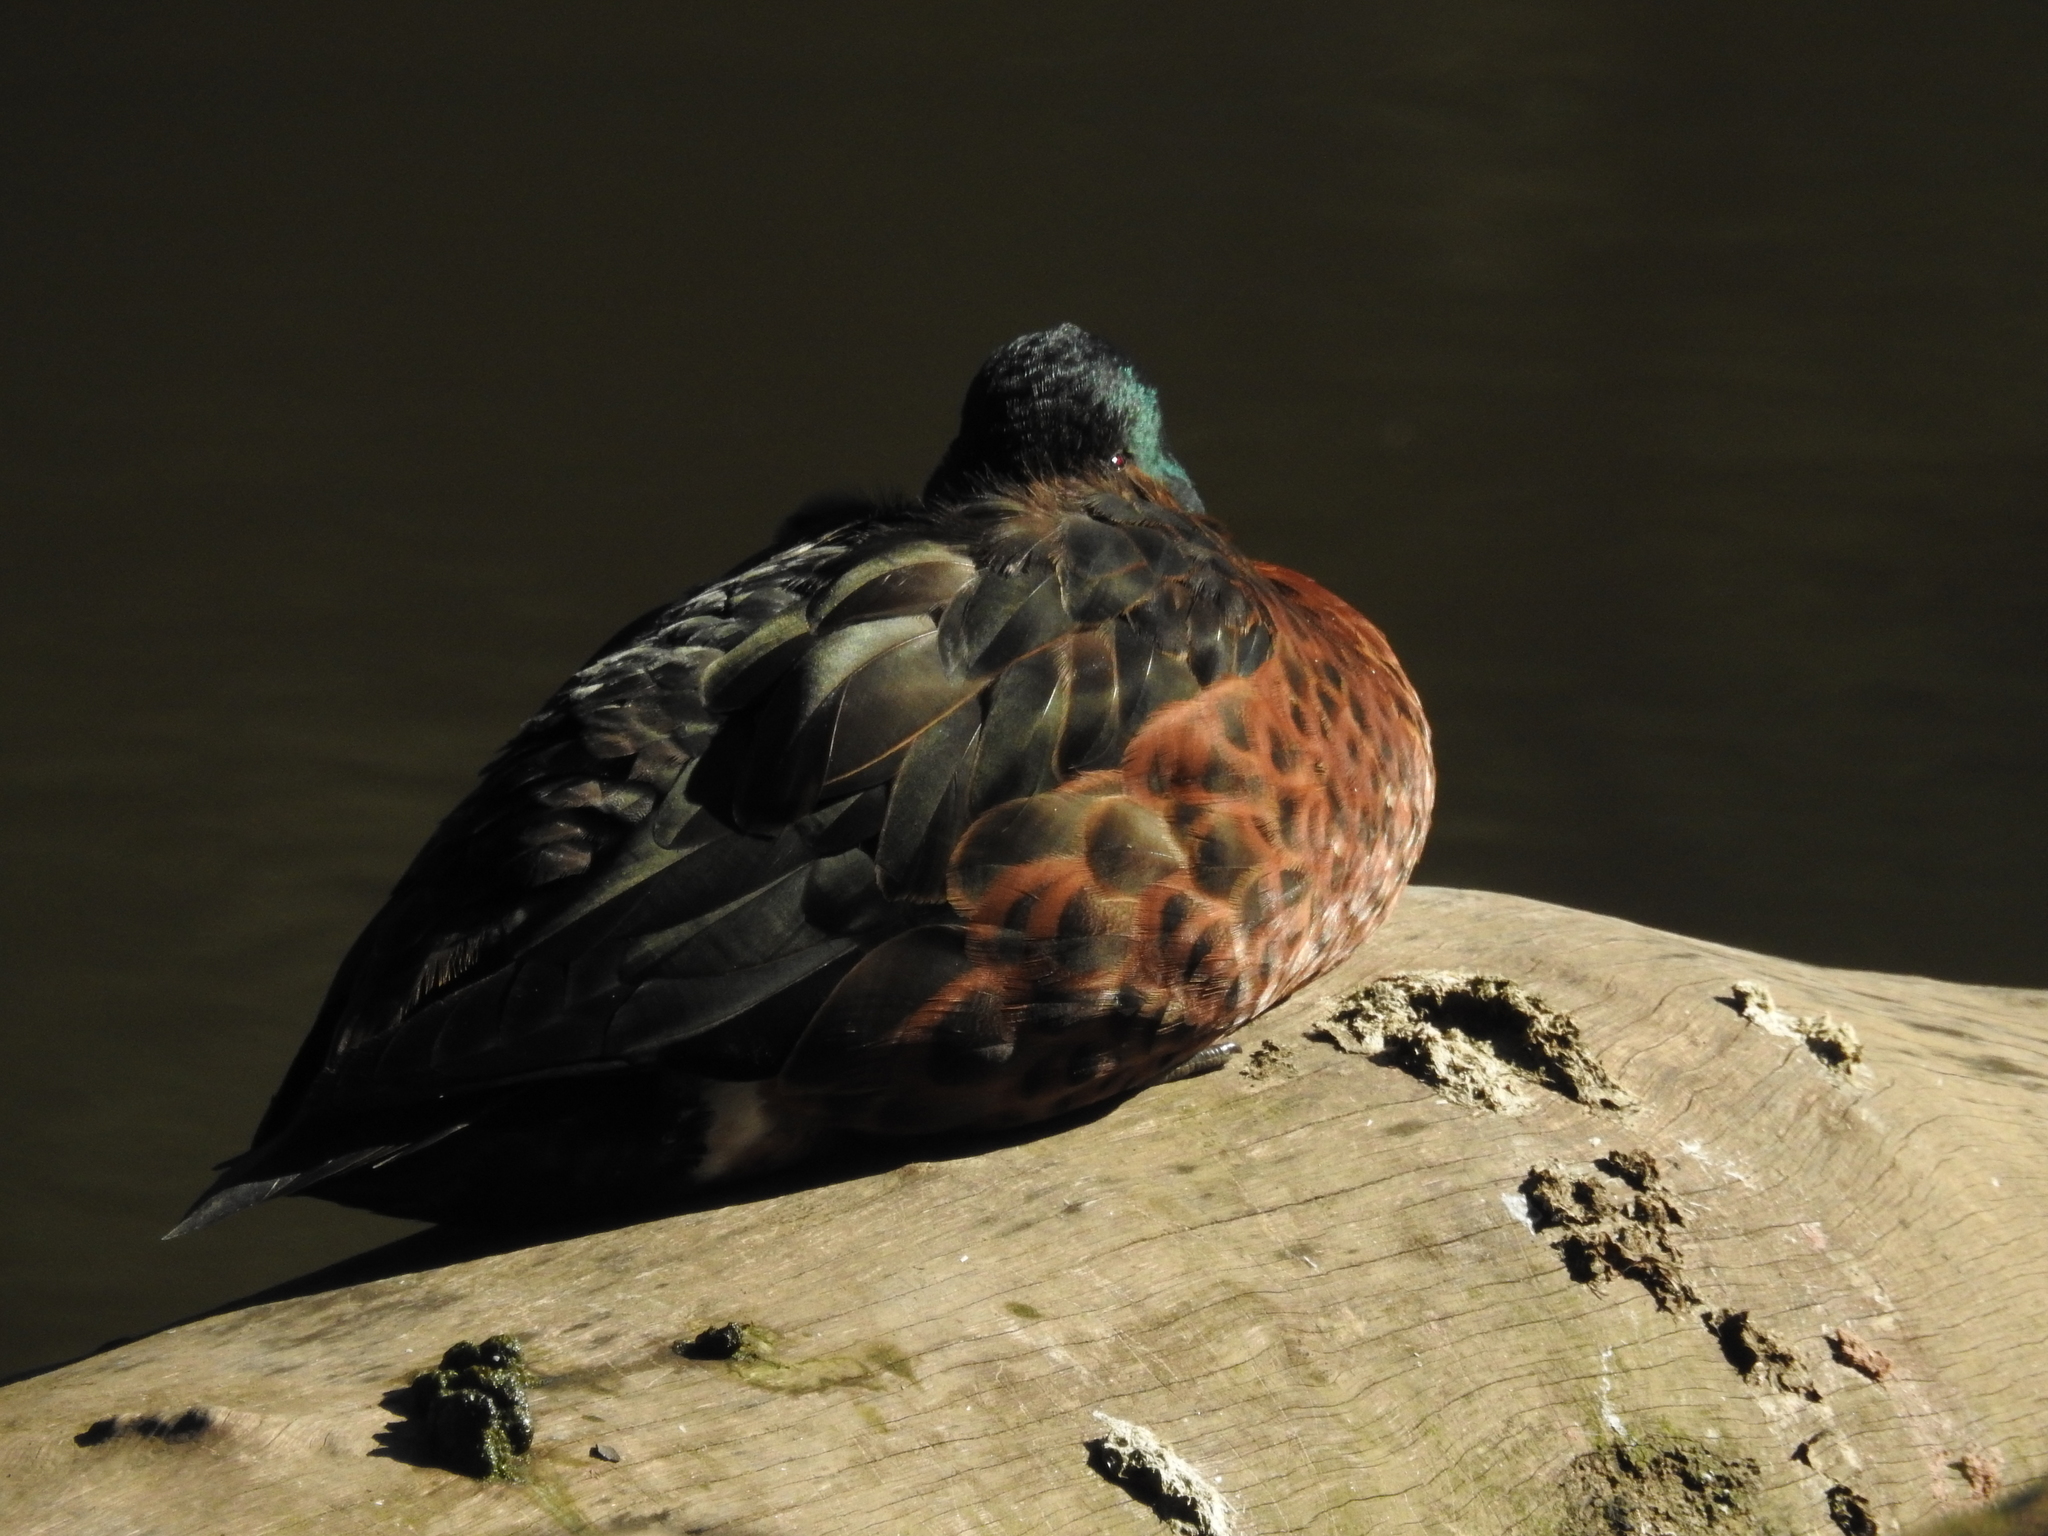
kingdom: Animalia
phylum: Chordata
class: Aves
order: Anseriformes
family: Anatidae
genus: Anas
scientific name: Anas castanea
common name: Chestnut teal
